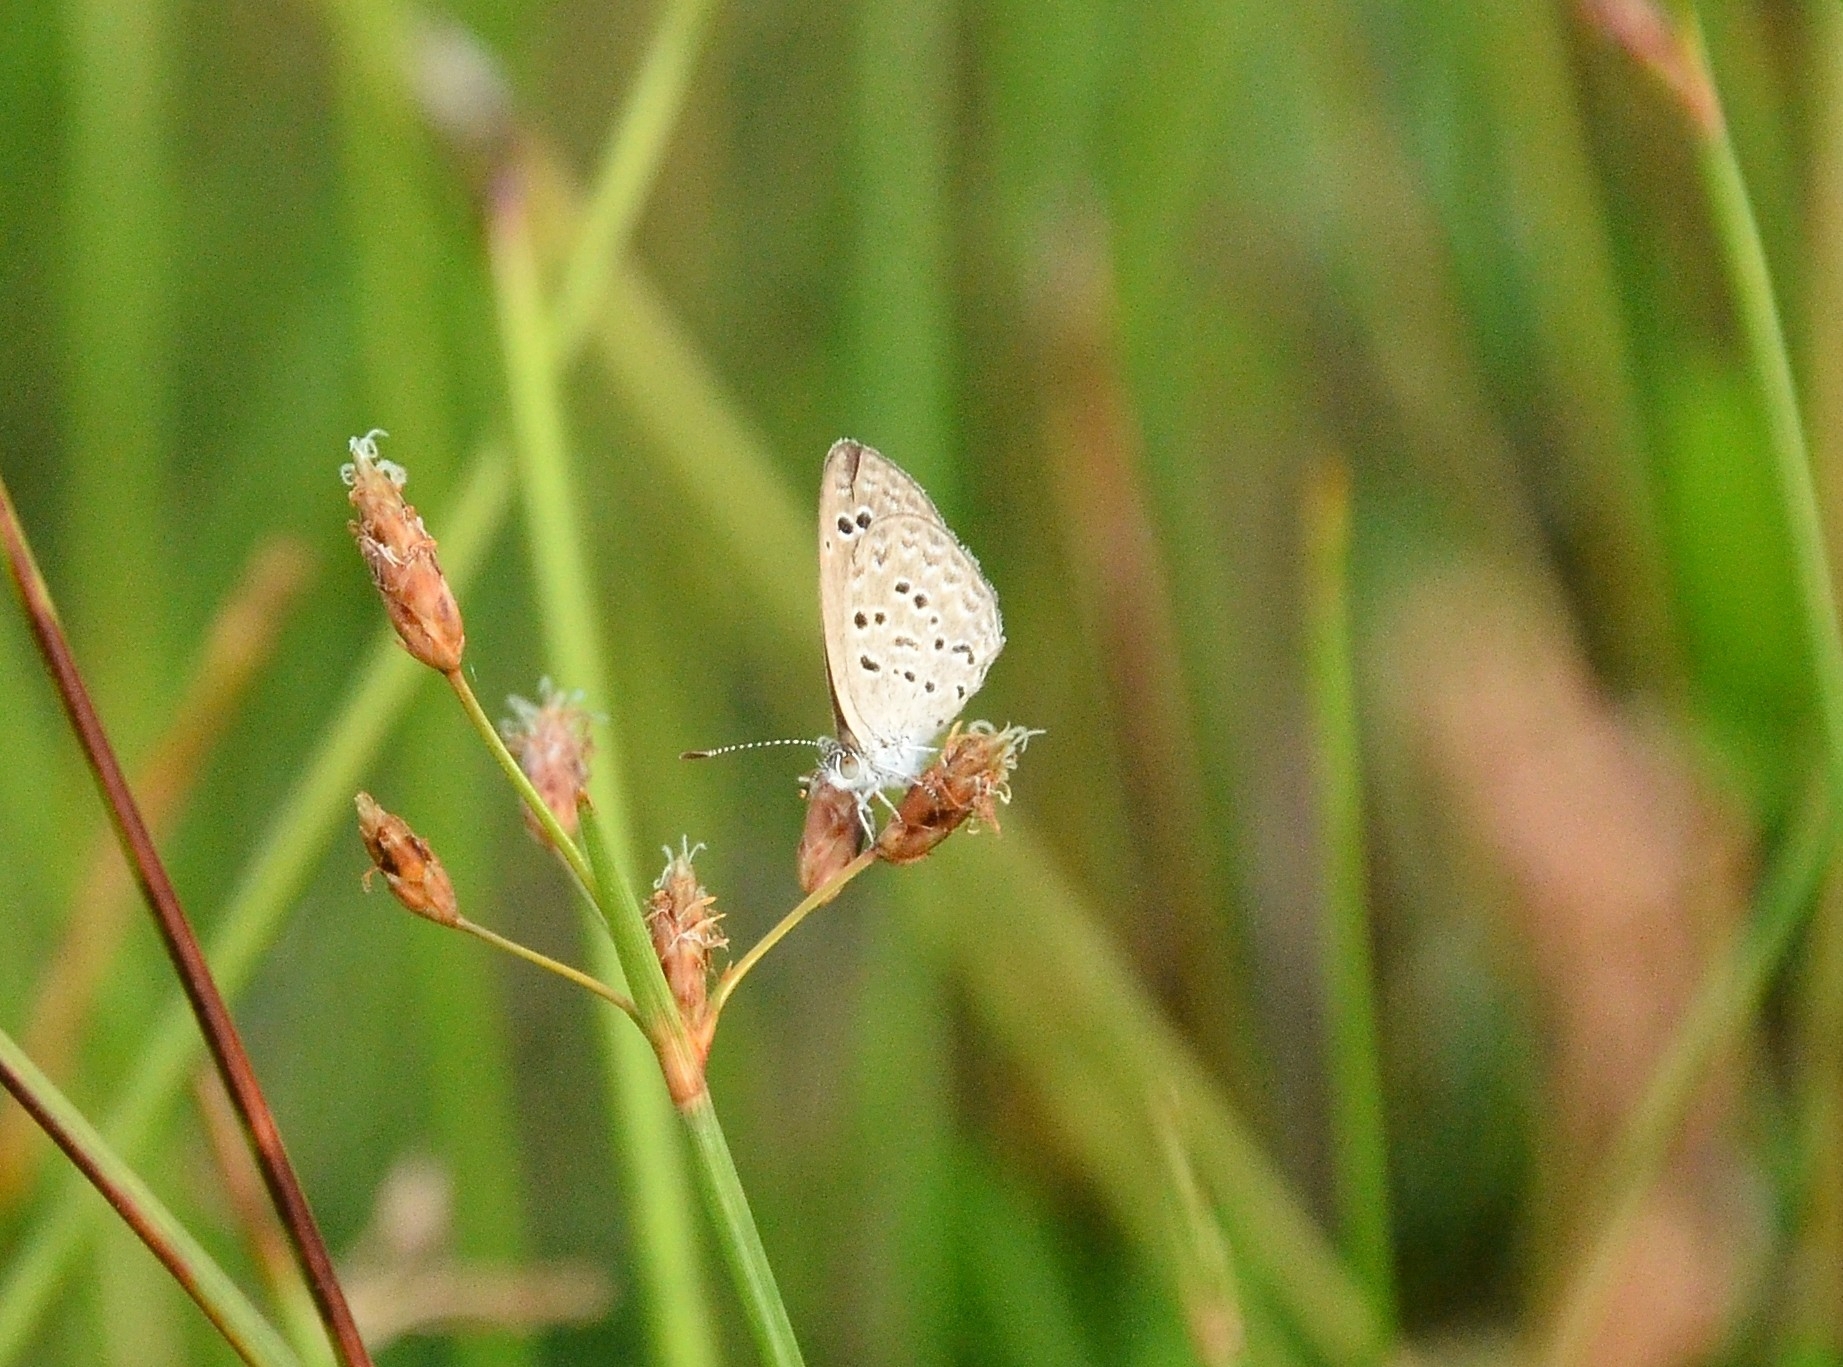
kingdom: Animalia
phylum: Arthropoda
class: Insecta
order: Lepidoptera
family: Lycaenidae
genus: Zizina
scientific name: Zizina otis
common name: Lesser grass blue
